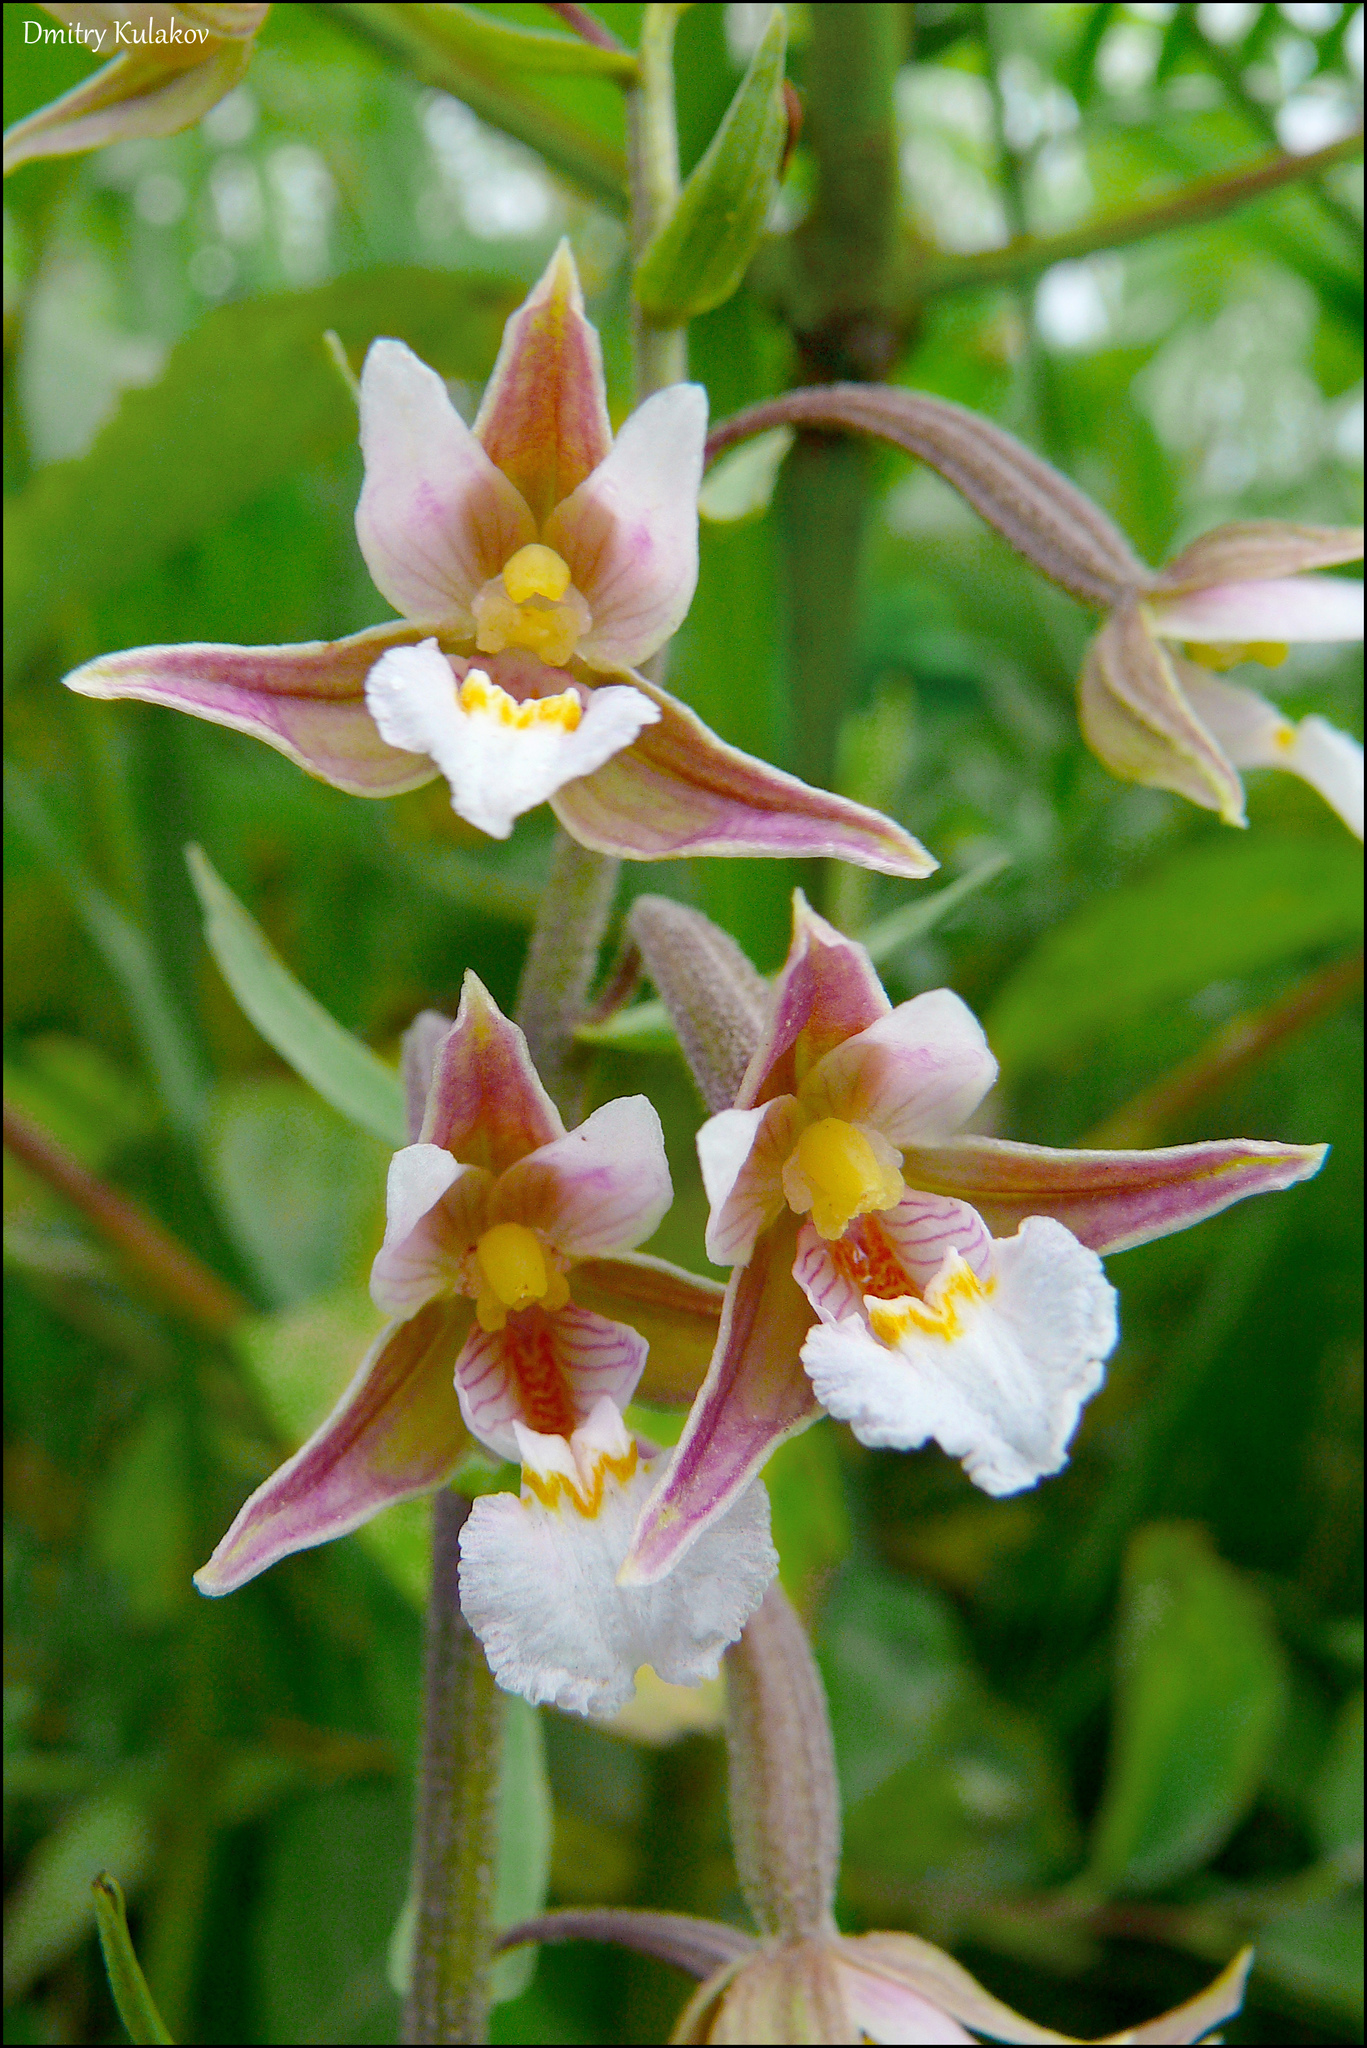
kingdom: Plantae
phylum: Tracheophyta
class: Liliopsida
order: Asparagales
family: Orchidaceae
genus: Epipactis
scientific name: Epipactis palustris
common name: Marsh helleborine
